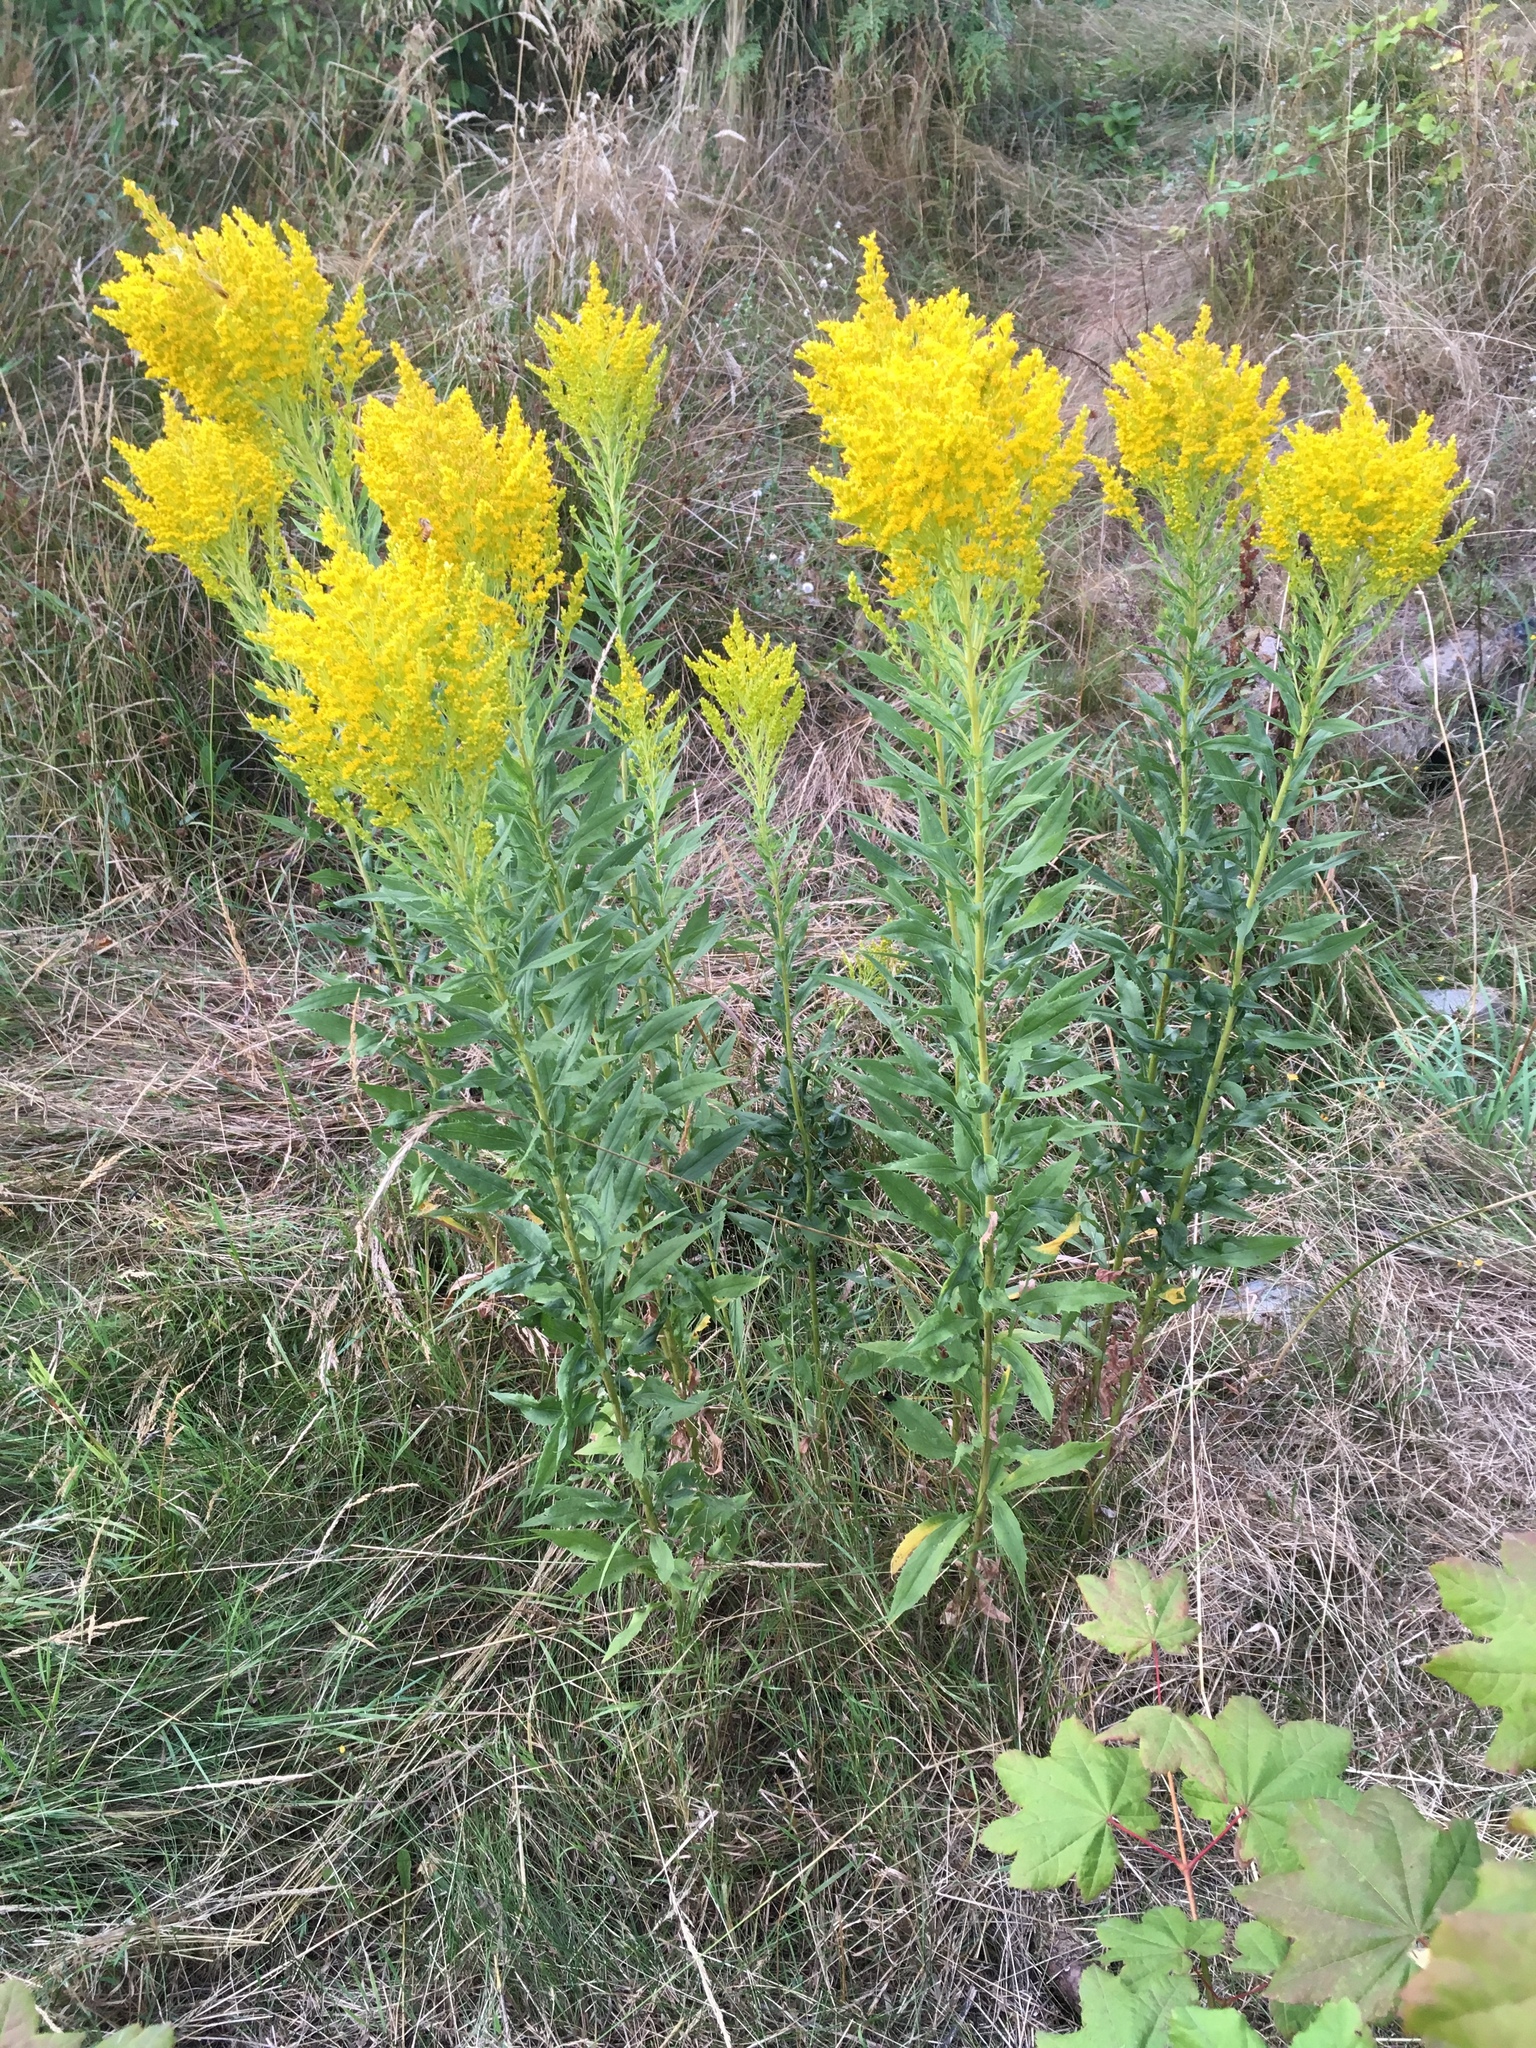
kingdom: Plantae
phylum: Tracheophyta
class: Magnoliopsida
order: Asterales
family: Asteraceae
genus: Solidago
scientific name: Solidago lepida
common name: Western canada goldenrod
